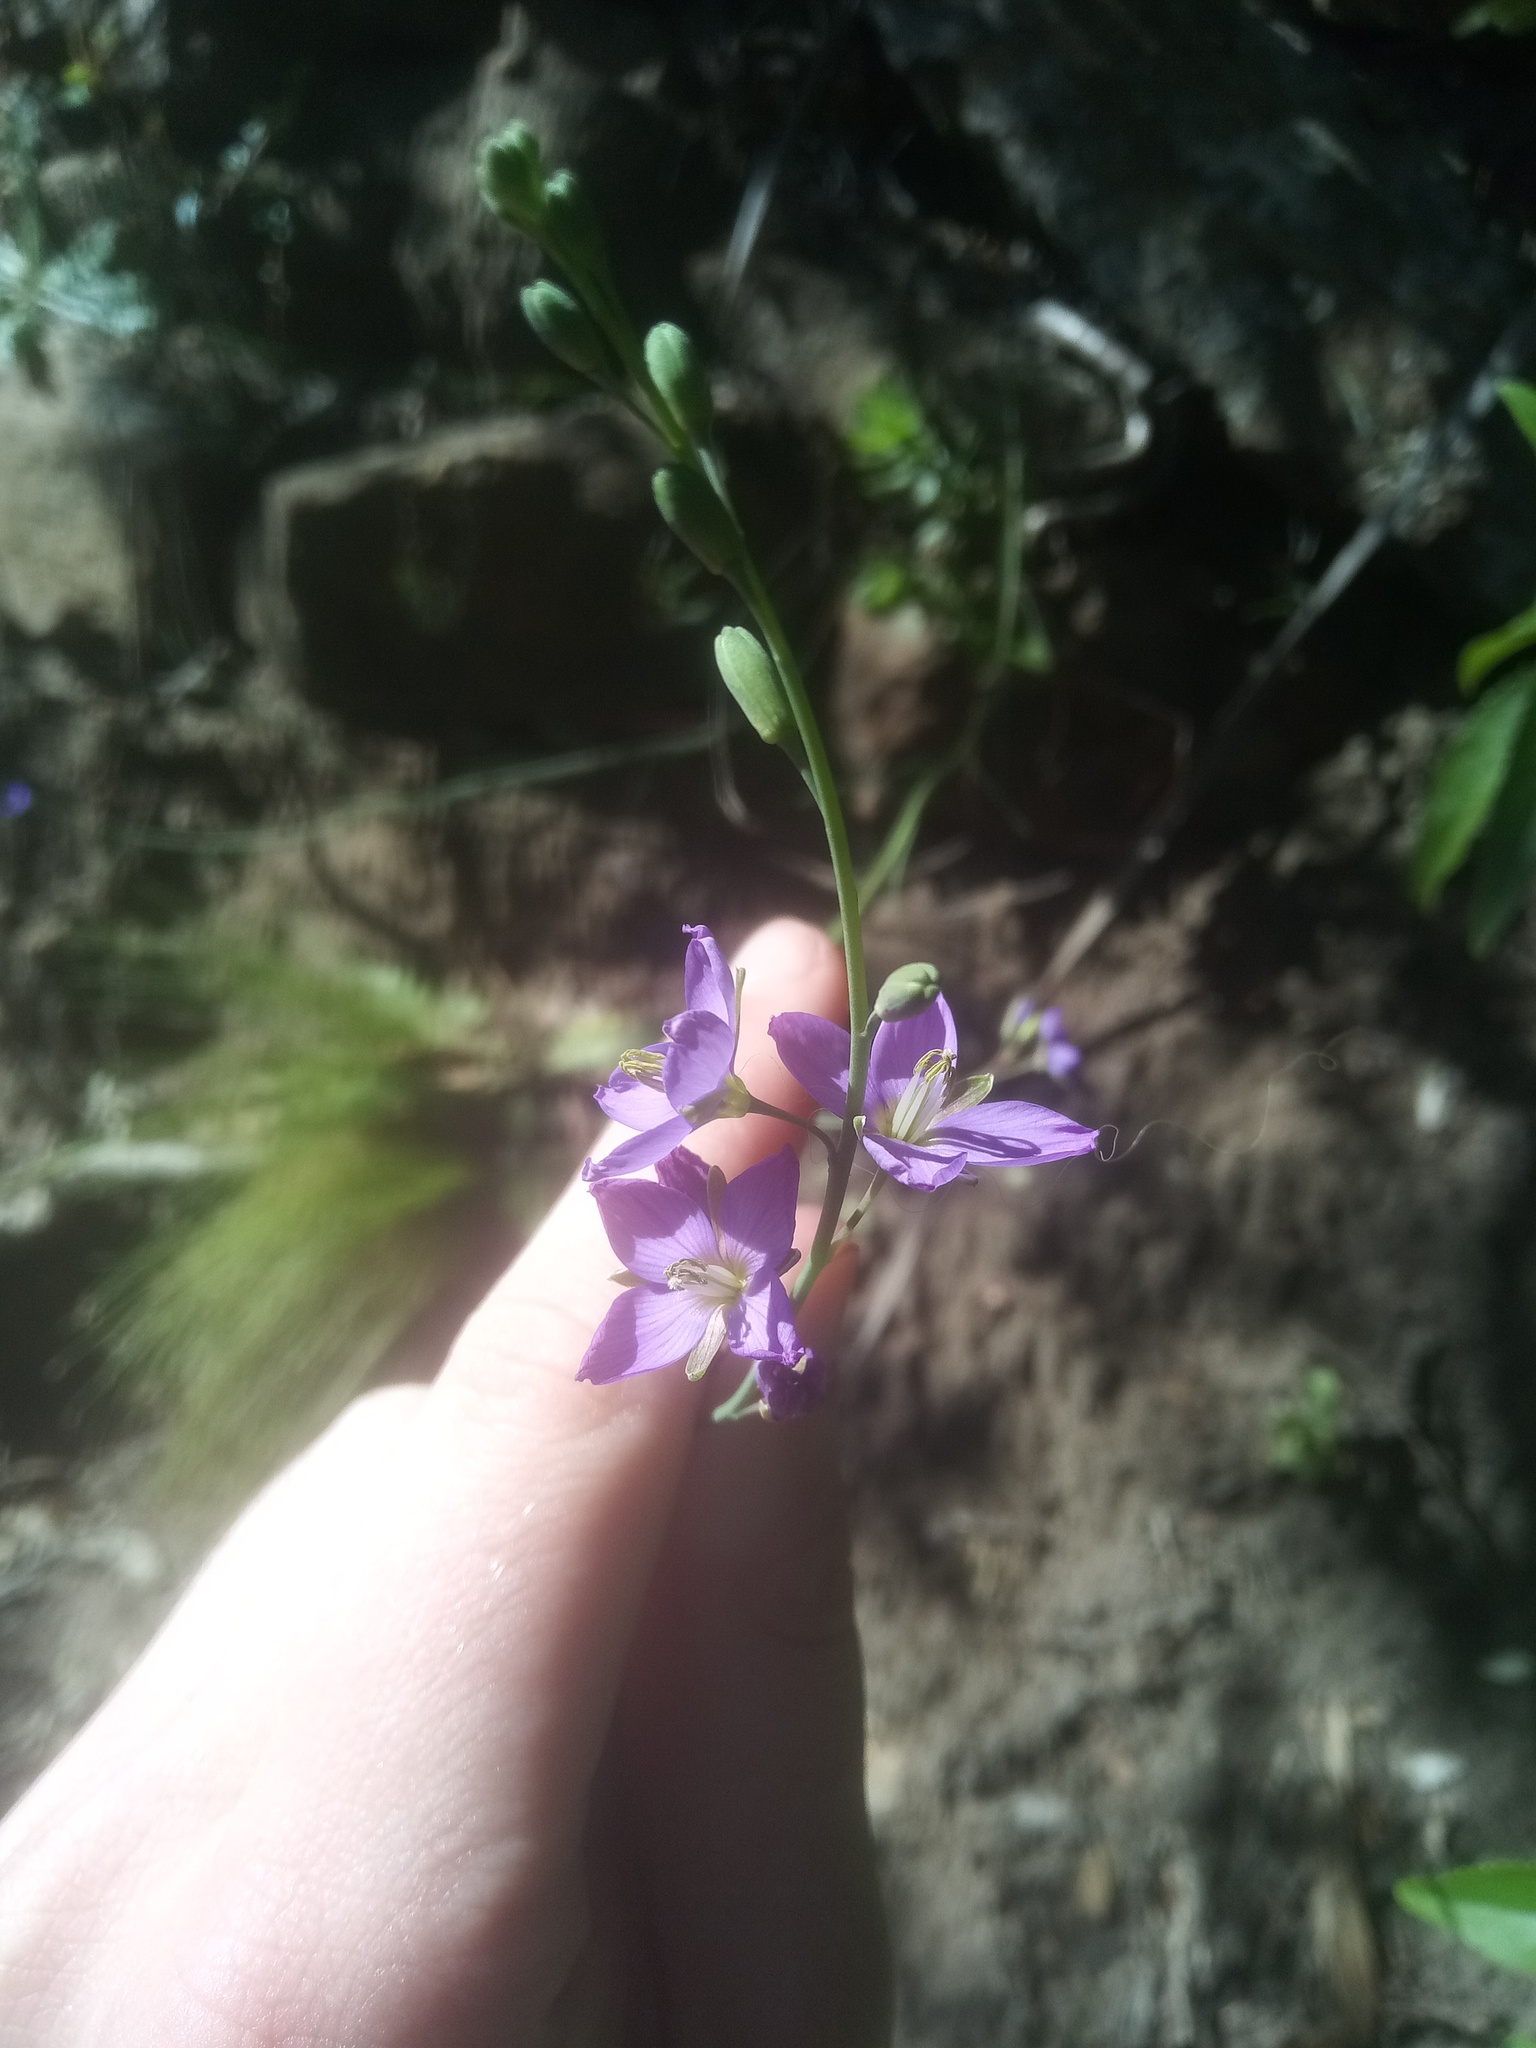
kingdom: Plantae
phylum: Tracheophyta
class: Magnoliopsida
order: Brassicales
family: Brassicaceae
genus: Heliophila
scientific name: Heliophila linearis
